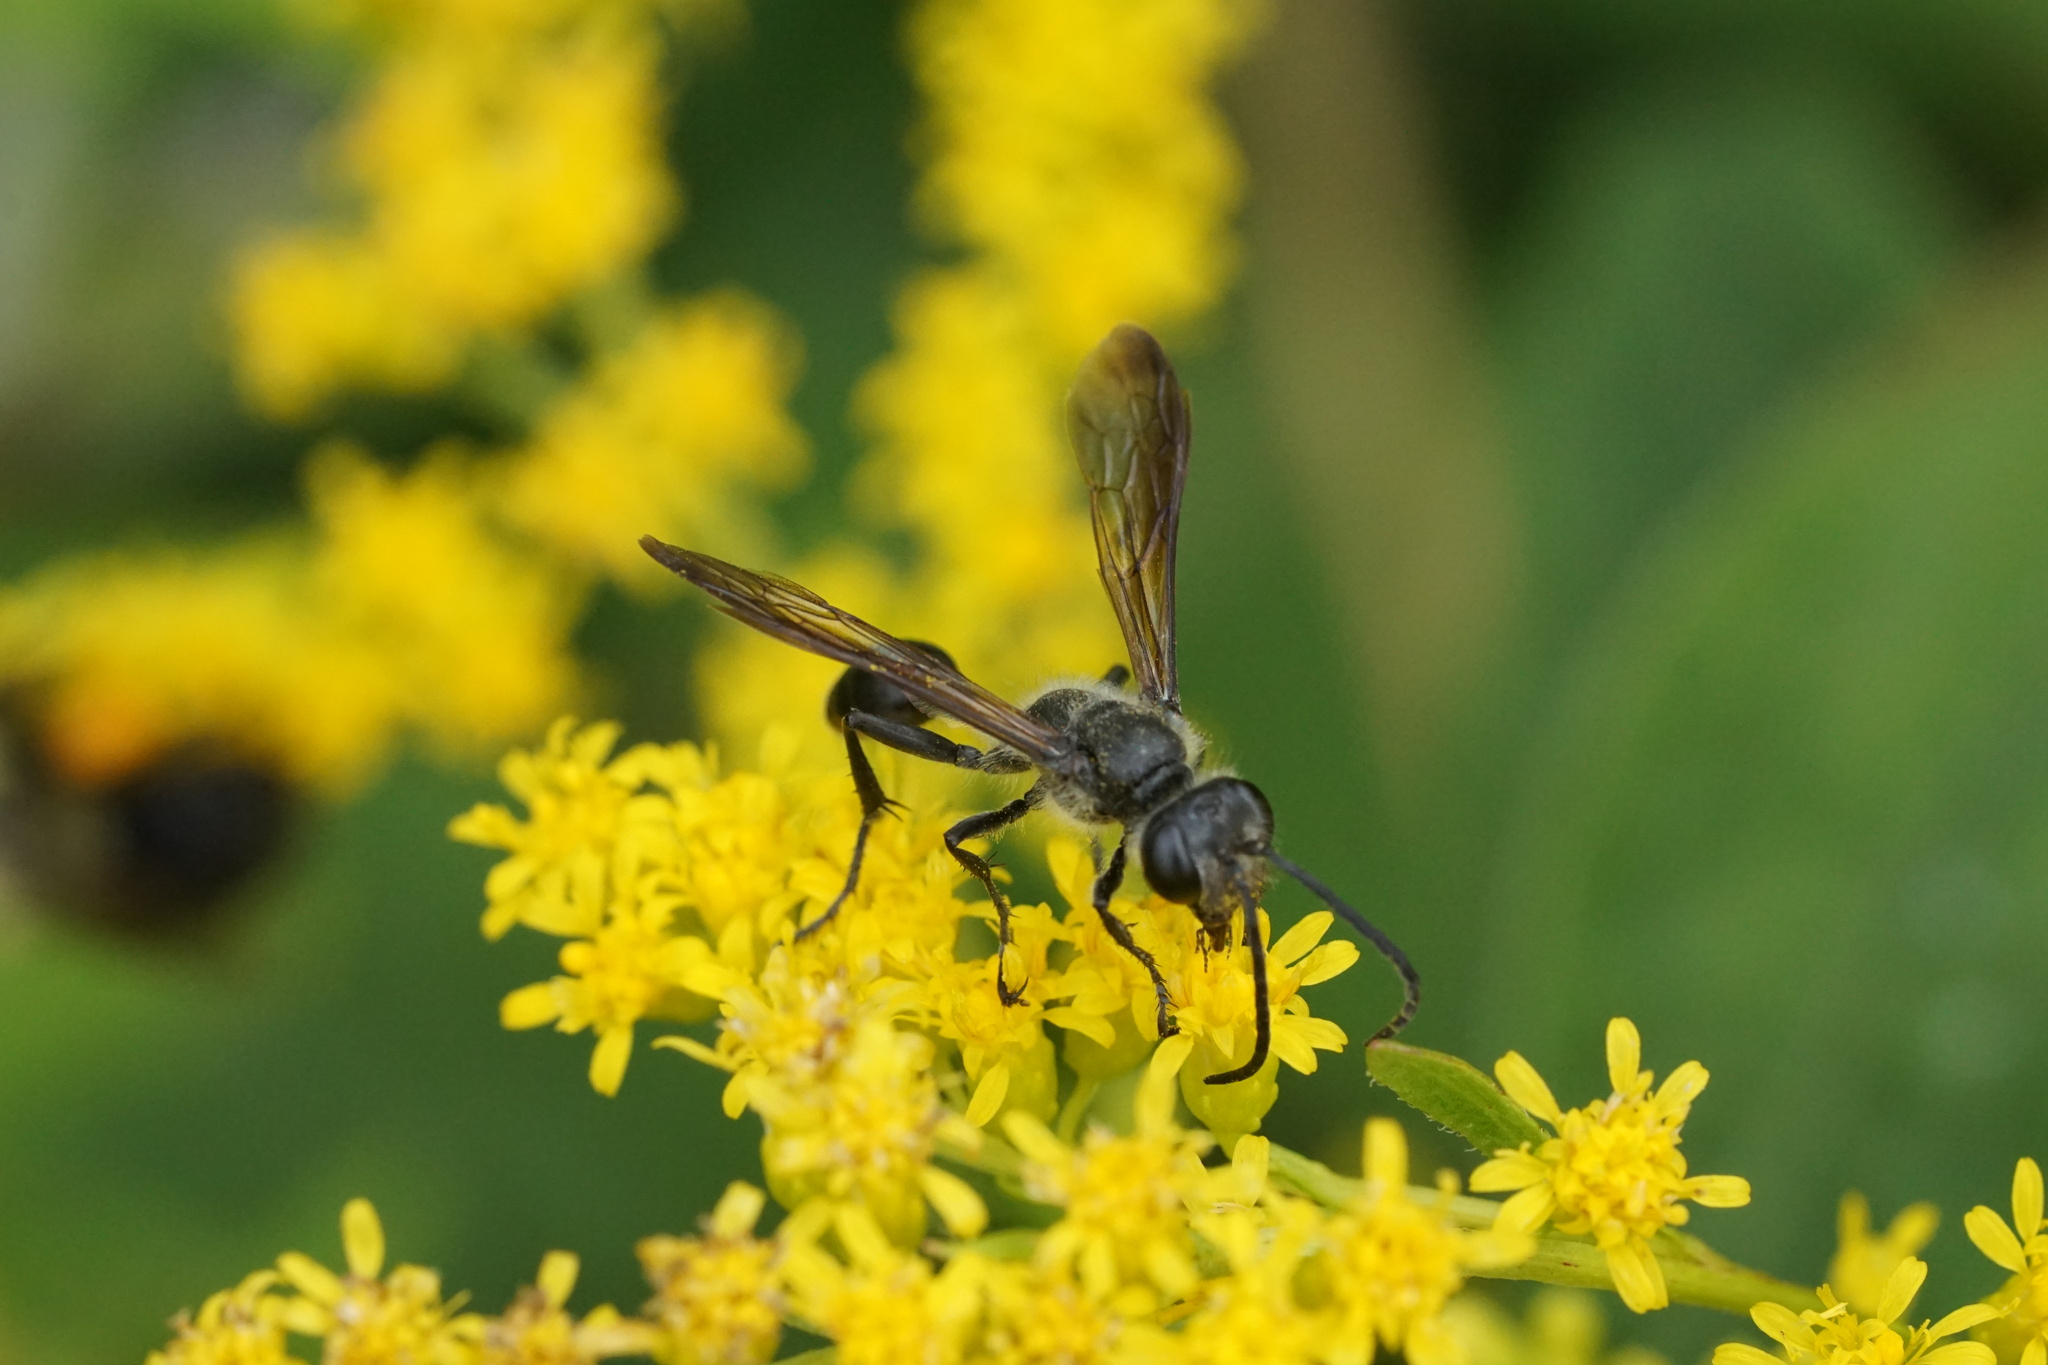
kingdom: Animalia
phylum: Arthropoda
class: Insecta
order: Hymenoptera
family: Sphecidae
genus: Isodontia
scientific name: Isodontia mexicana
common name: Mud dauber
